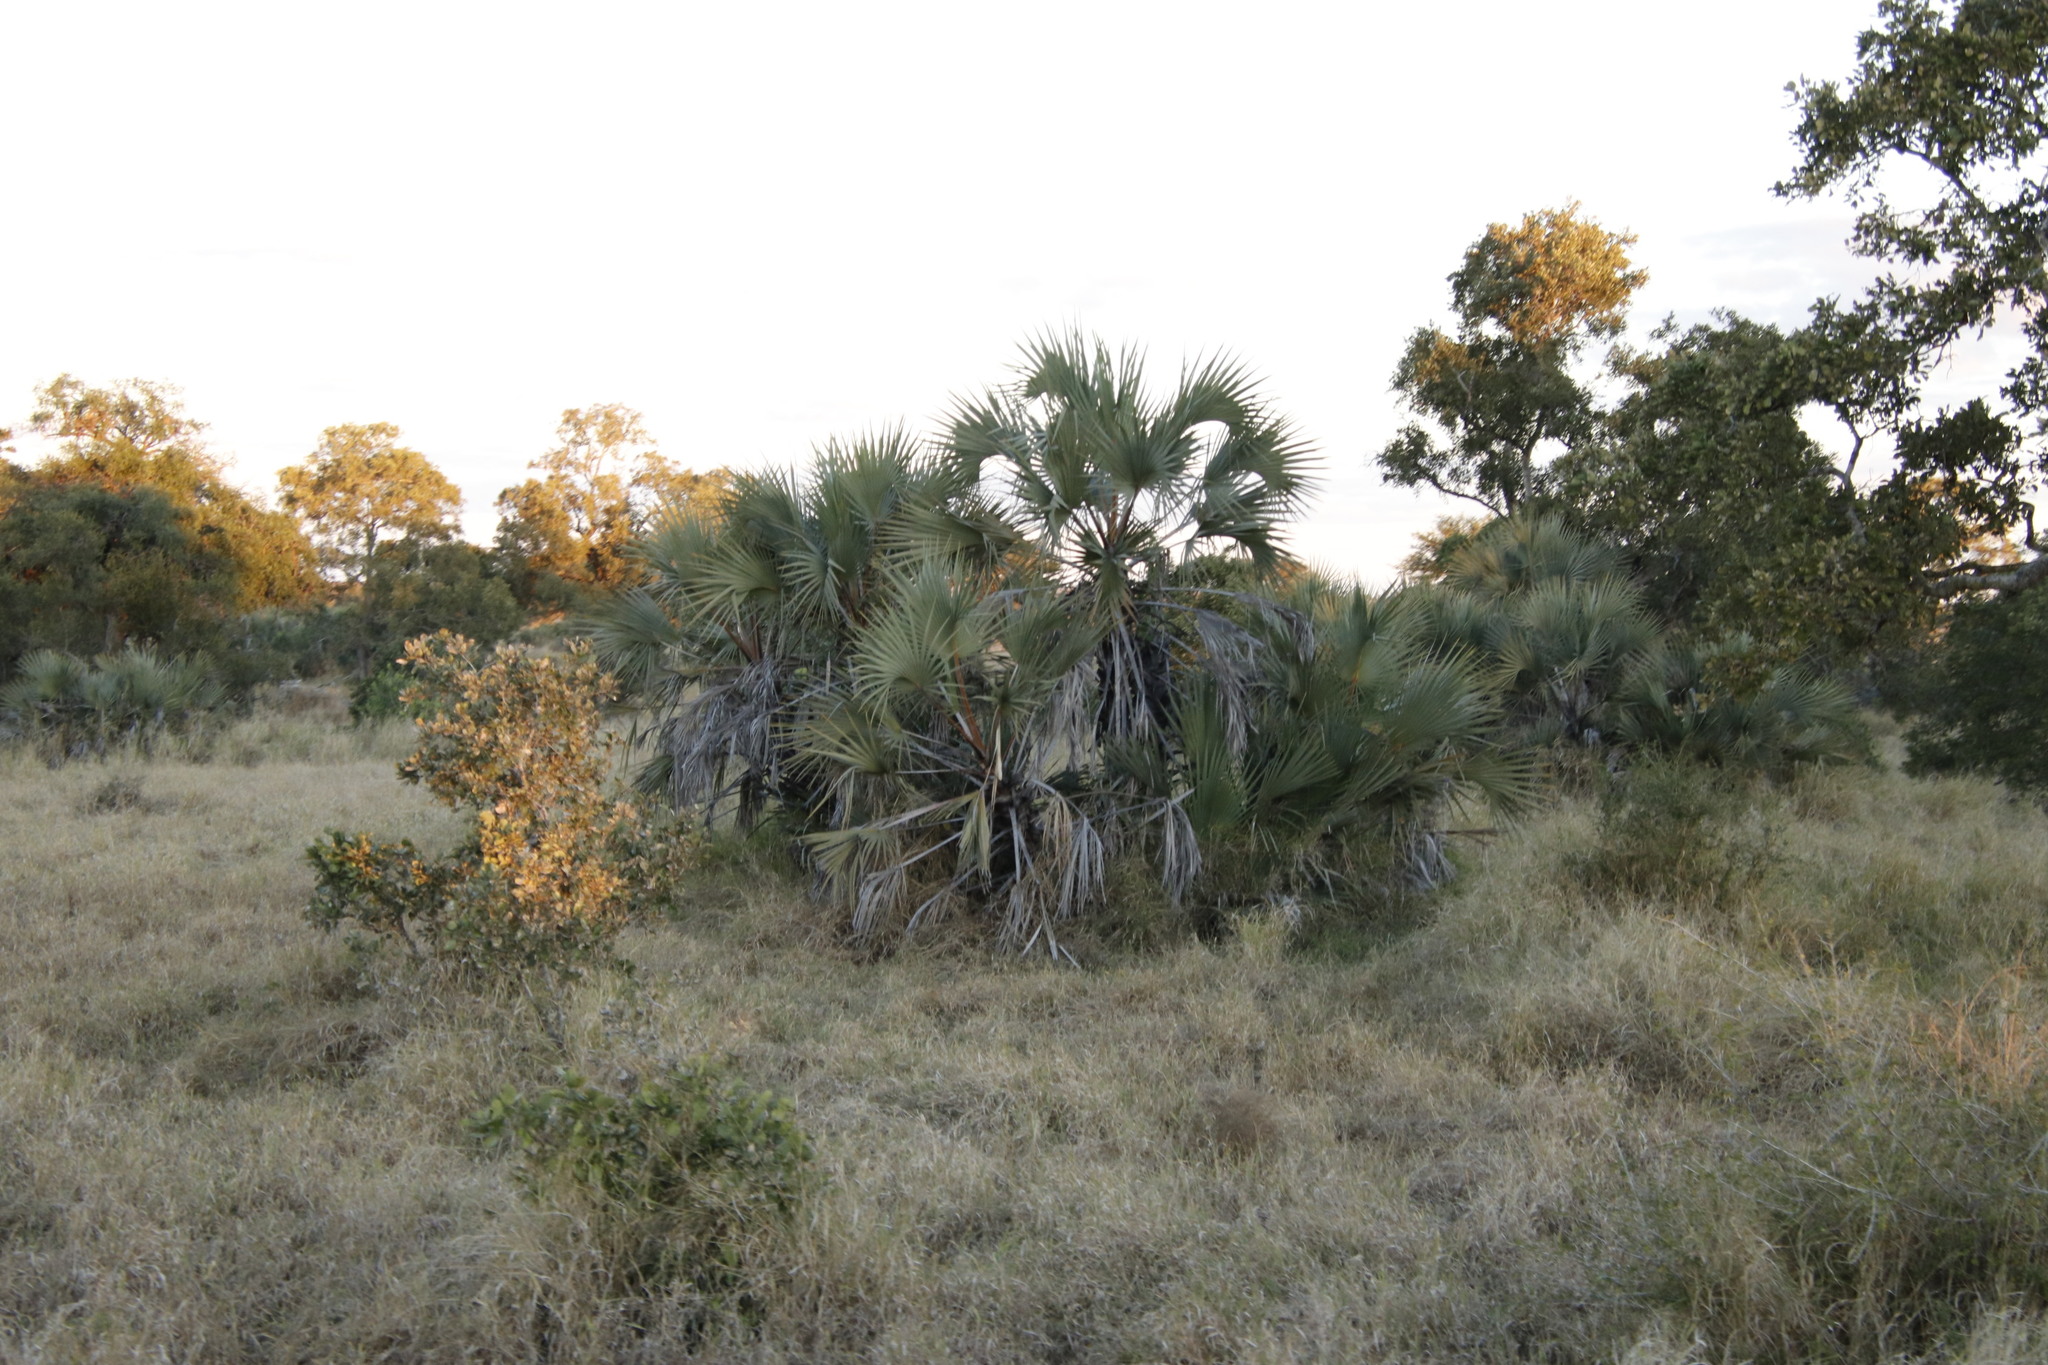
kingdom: Plantae
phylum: Tracheophyta
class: Liliopsida
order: Arecales
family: Arecaceae
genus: Hyphaene
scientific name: Hyphaene coriacea
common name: Ilala palm
